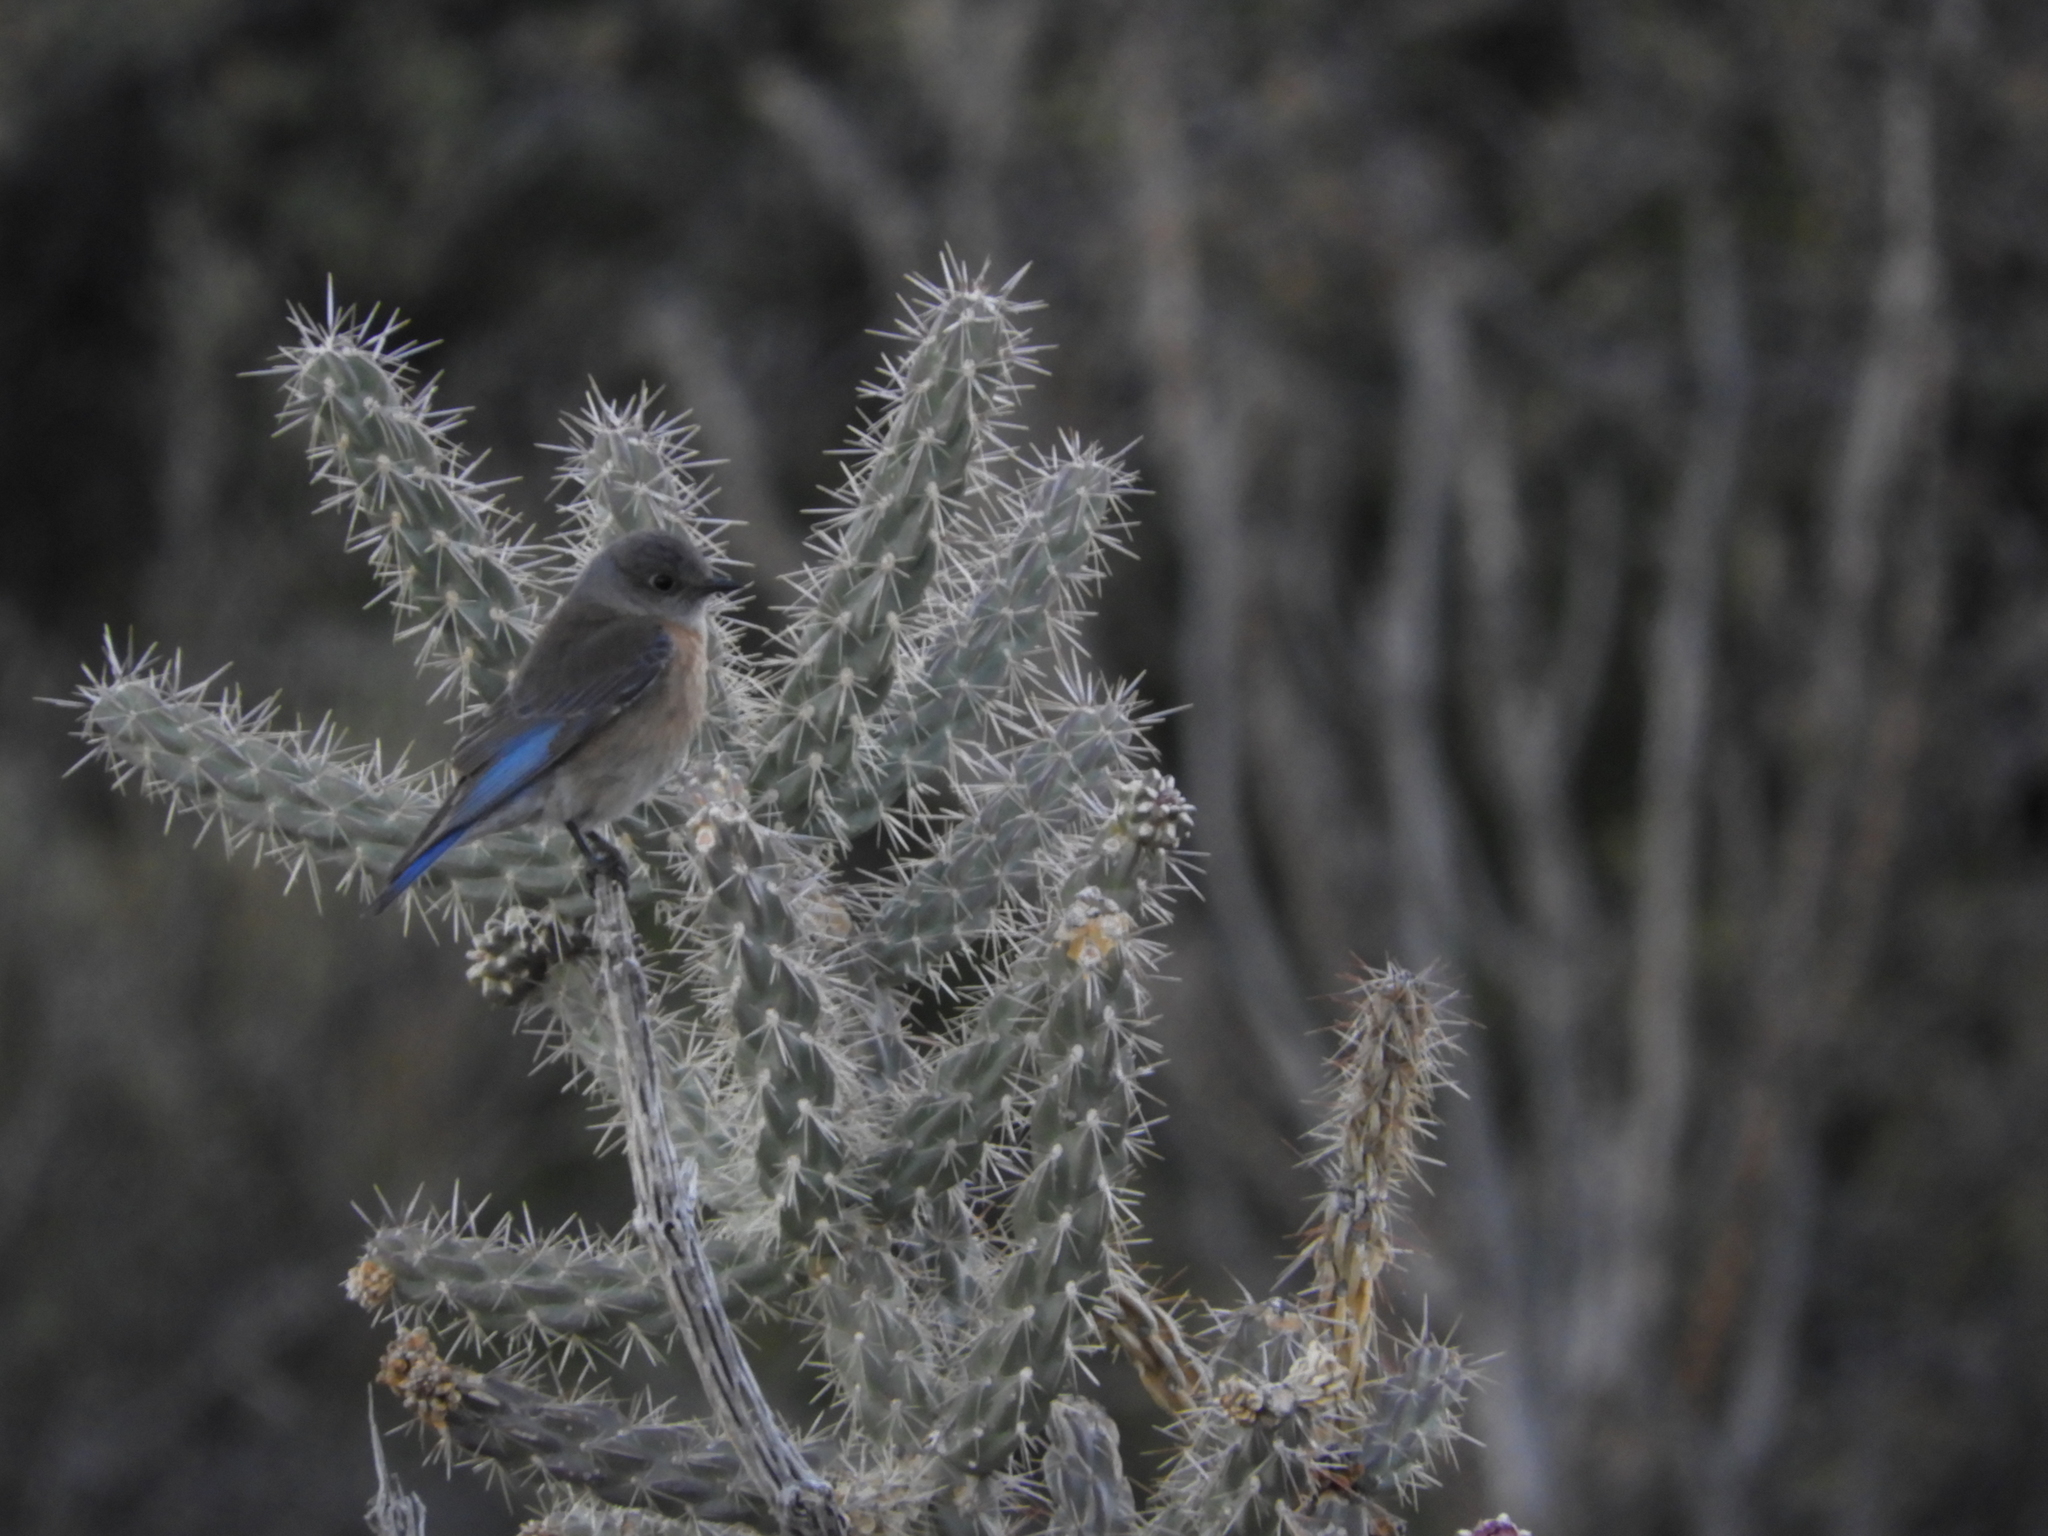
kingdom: Animalia
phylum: Chordata
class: Aves
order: Passeriformes
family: Turdidae
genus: Sialia
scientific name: Sialia mexicana
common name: Western bluebird
